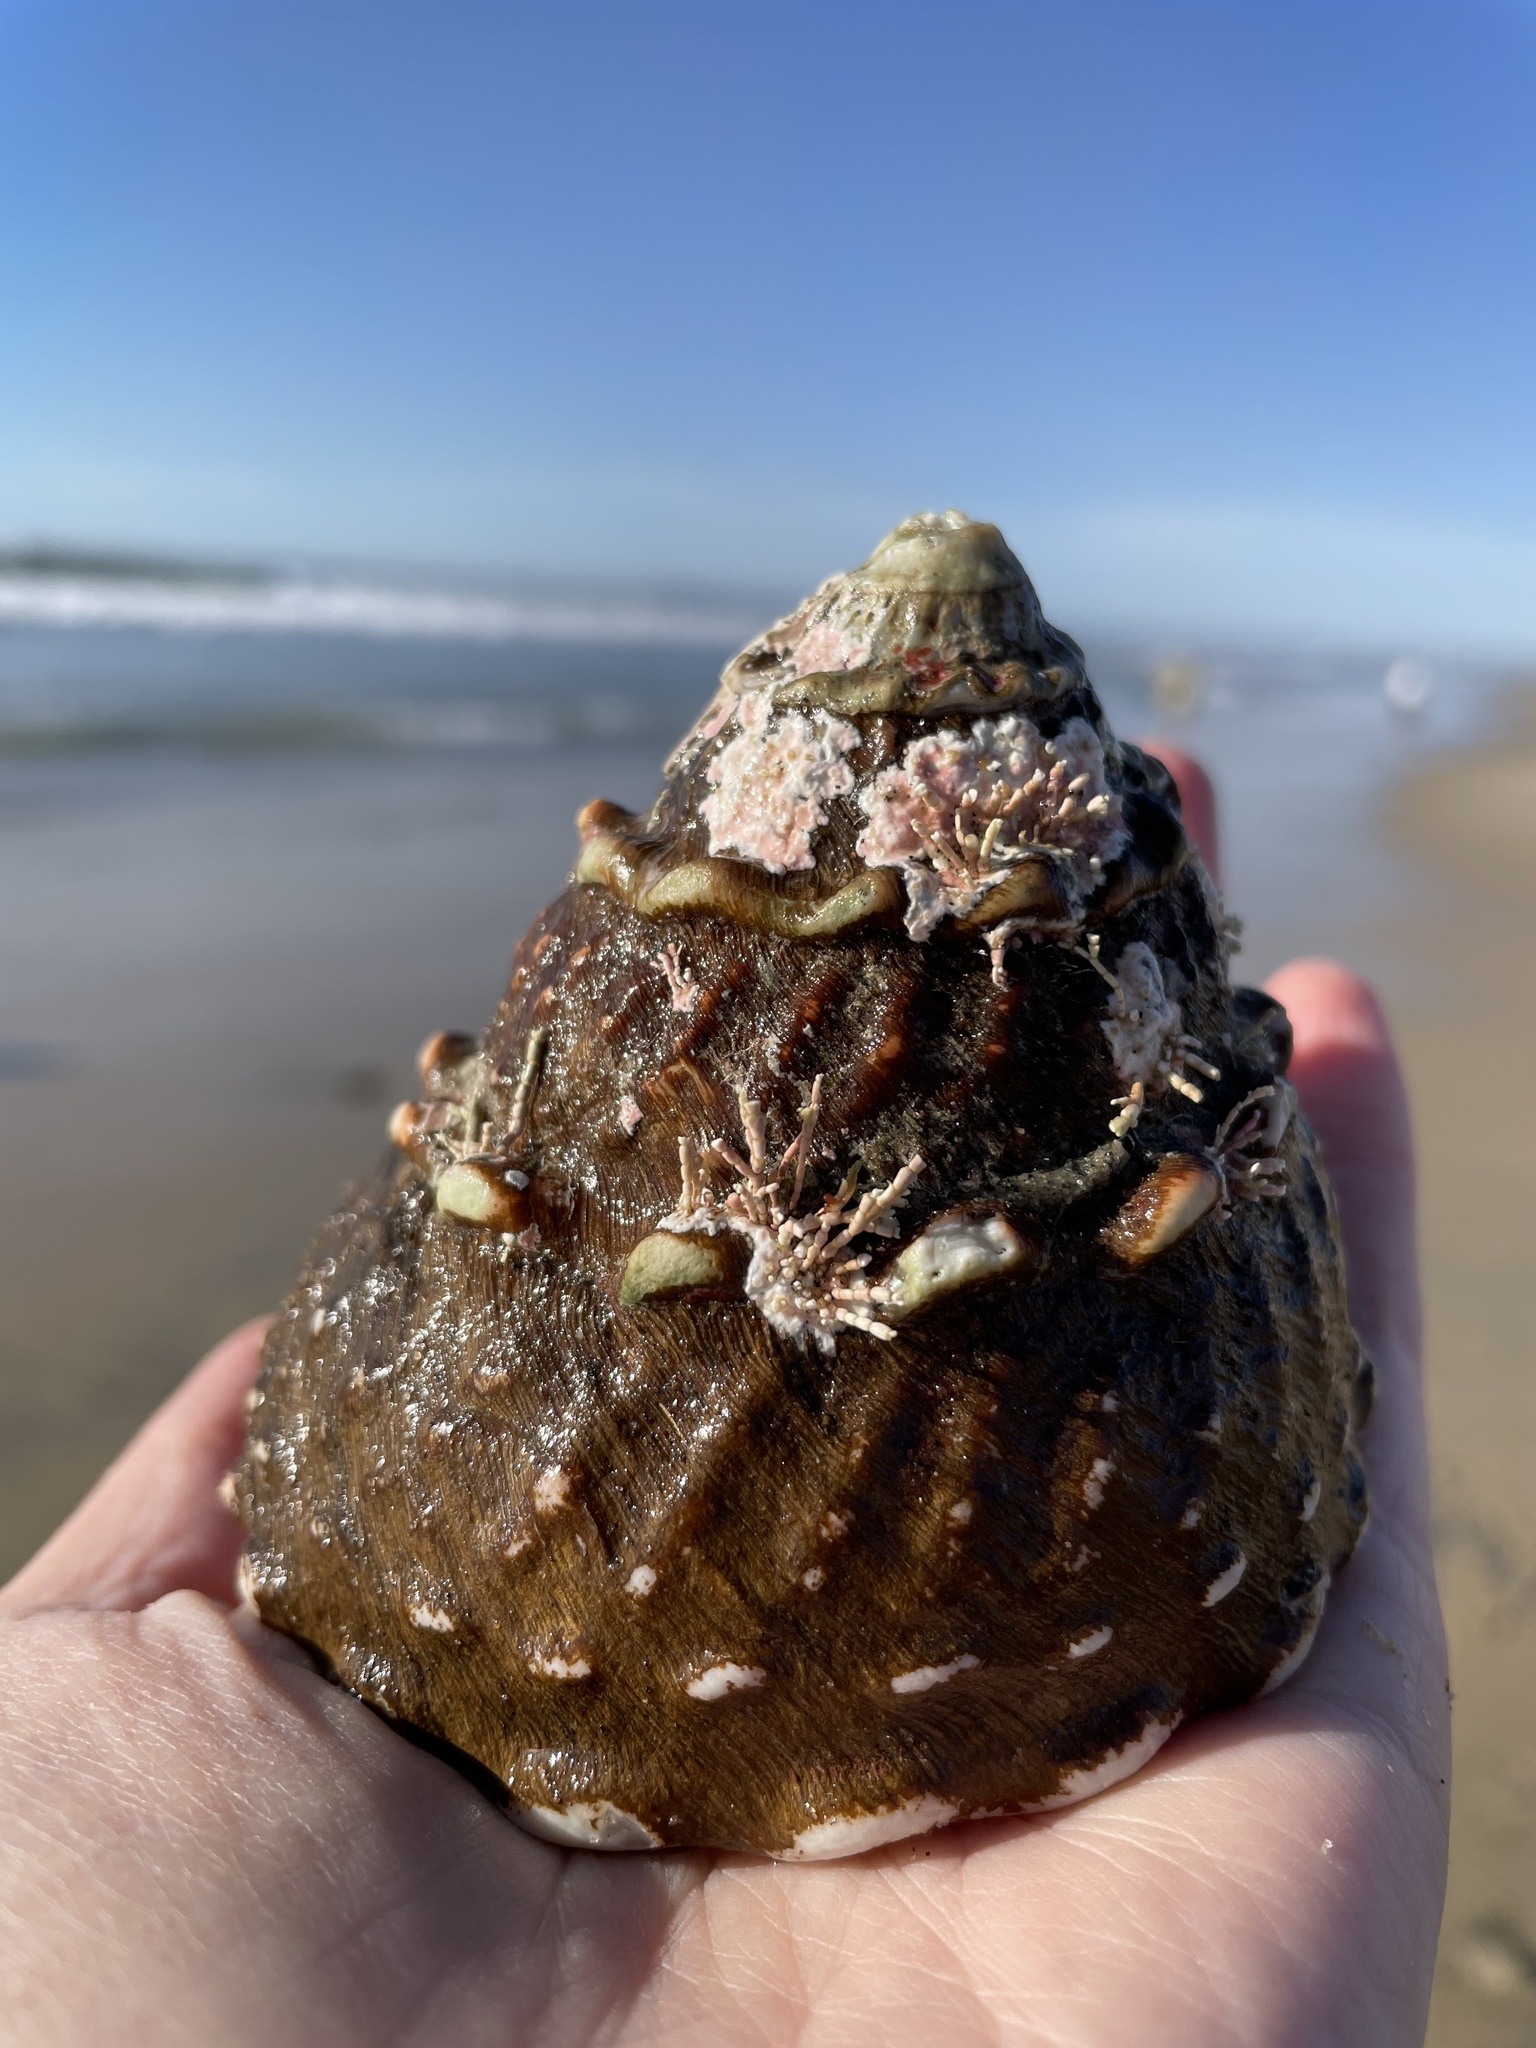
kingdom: Animalia
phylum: Mollusca
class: Gastropoda
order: Trochida
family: Turbinidae
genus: Megastraea
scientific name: Megastraea undosa
